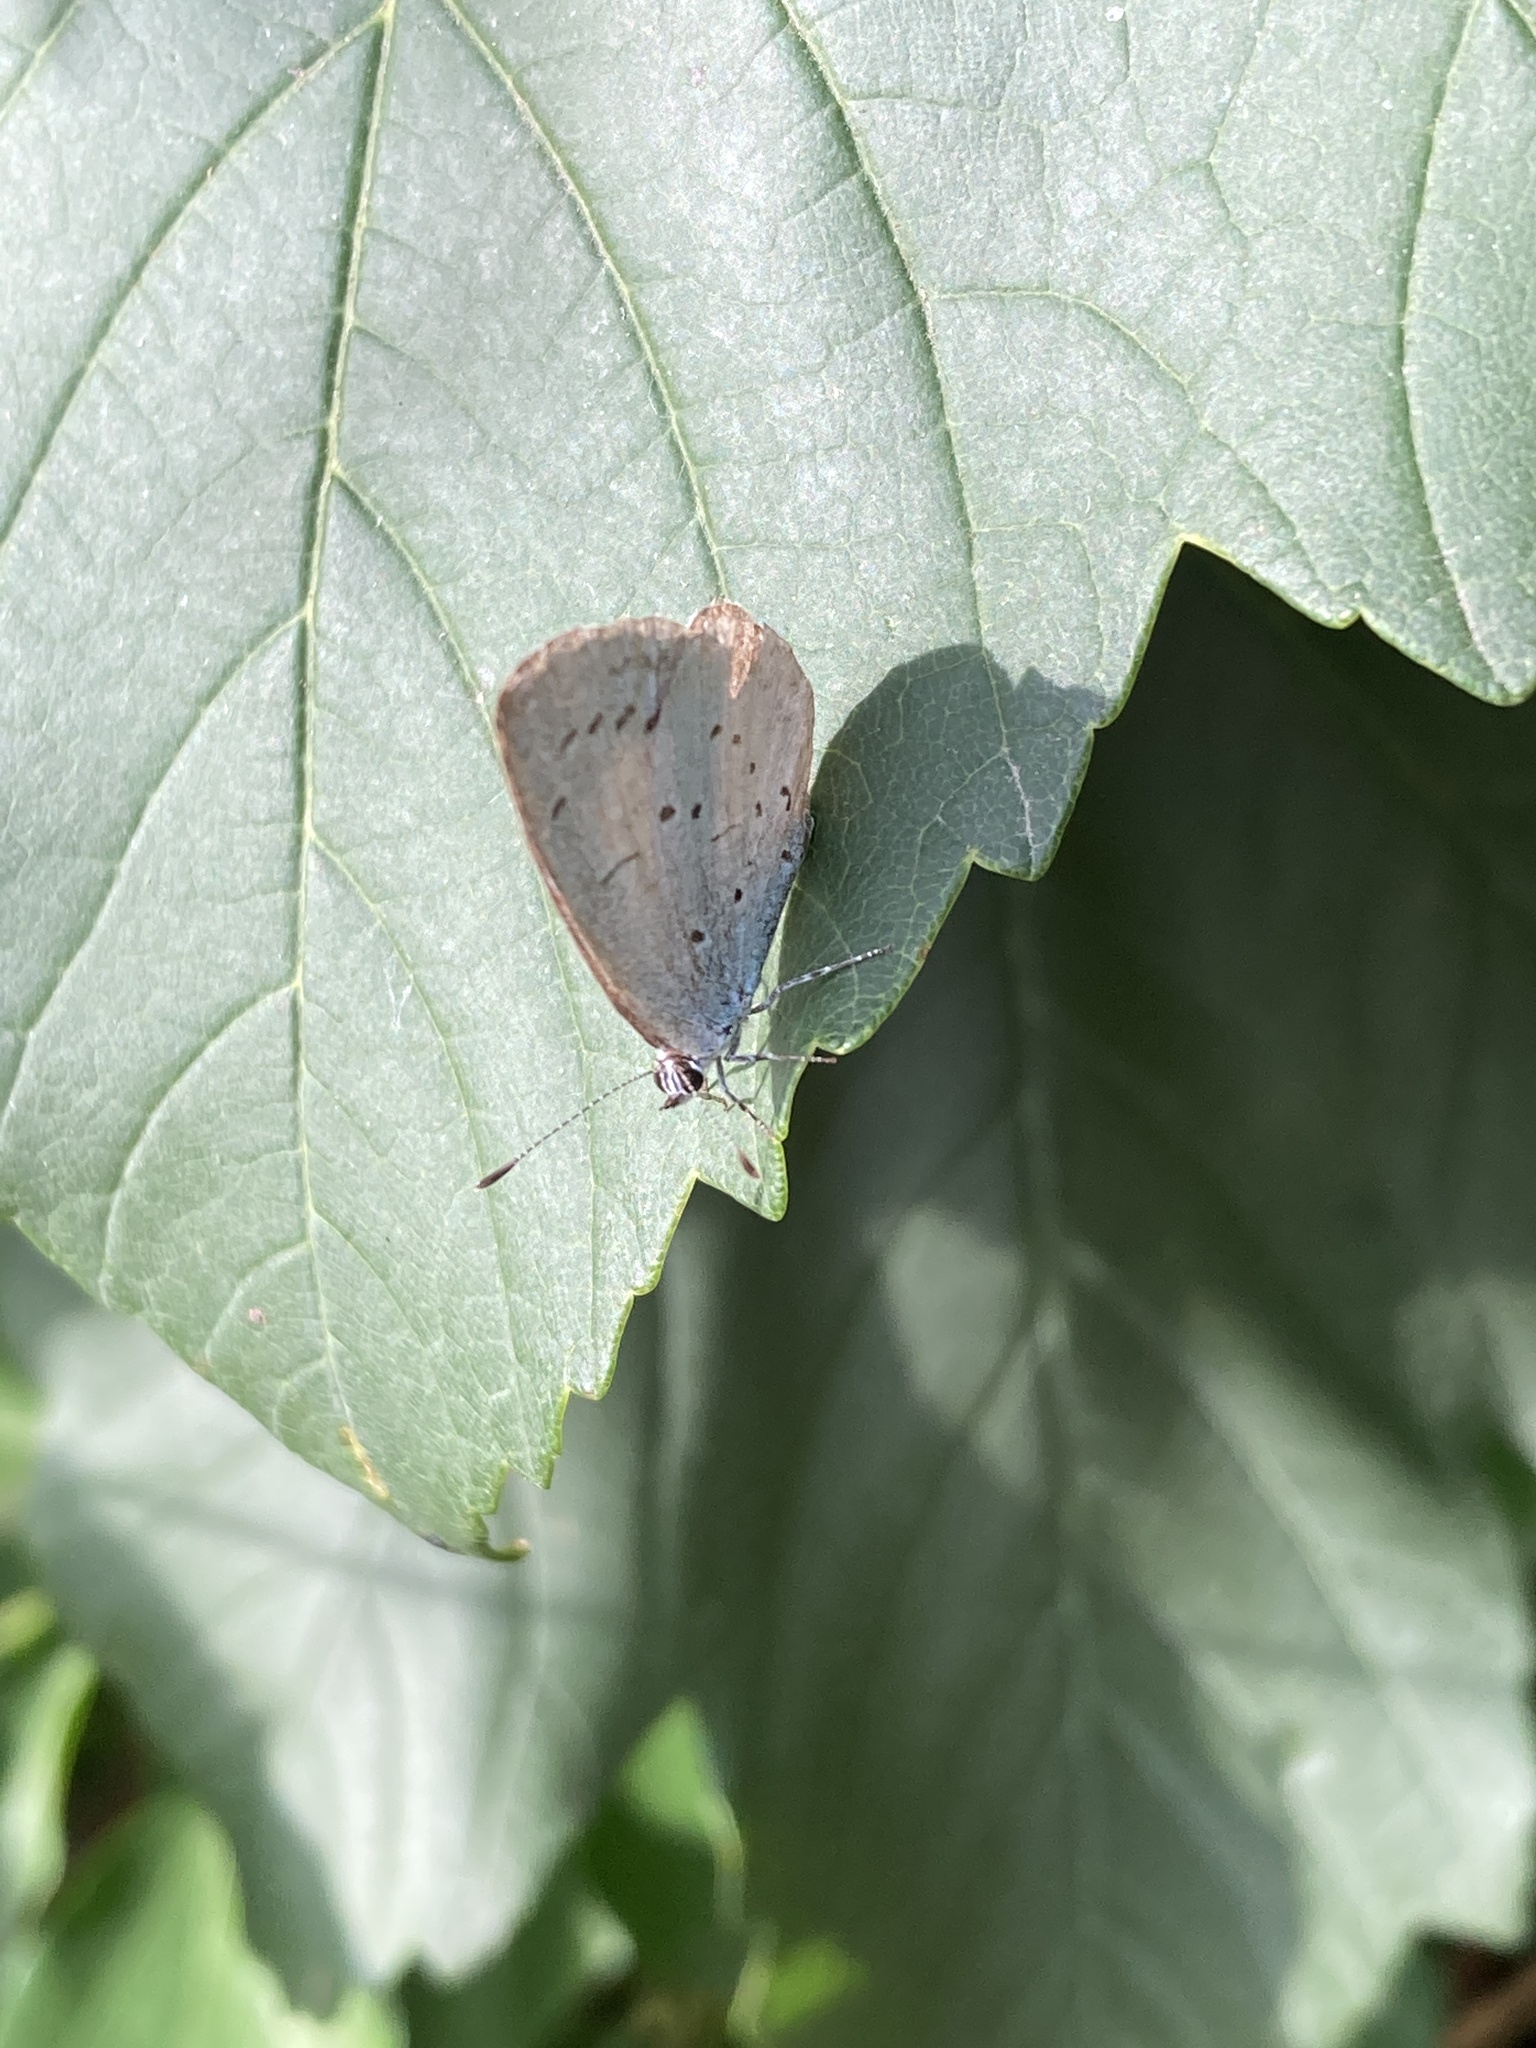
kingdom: Animalia
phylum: Arthropoda
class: Insecta
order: Lepidoptera
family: Lycaenidae
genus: Celastrina
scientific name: Celastrina argiolus
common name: Holly blue
